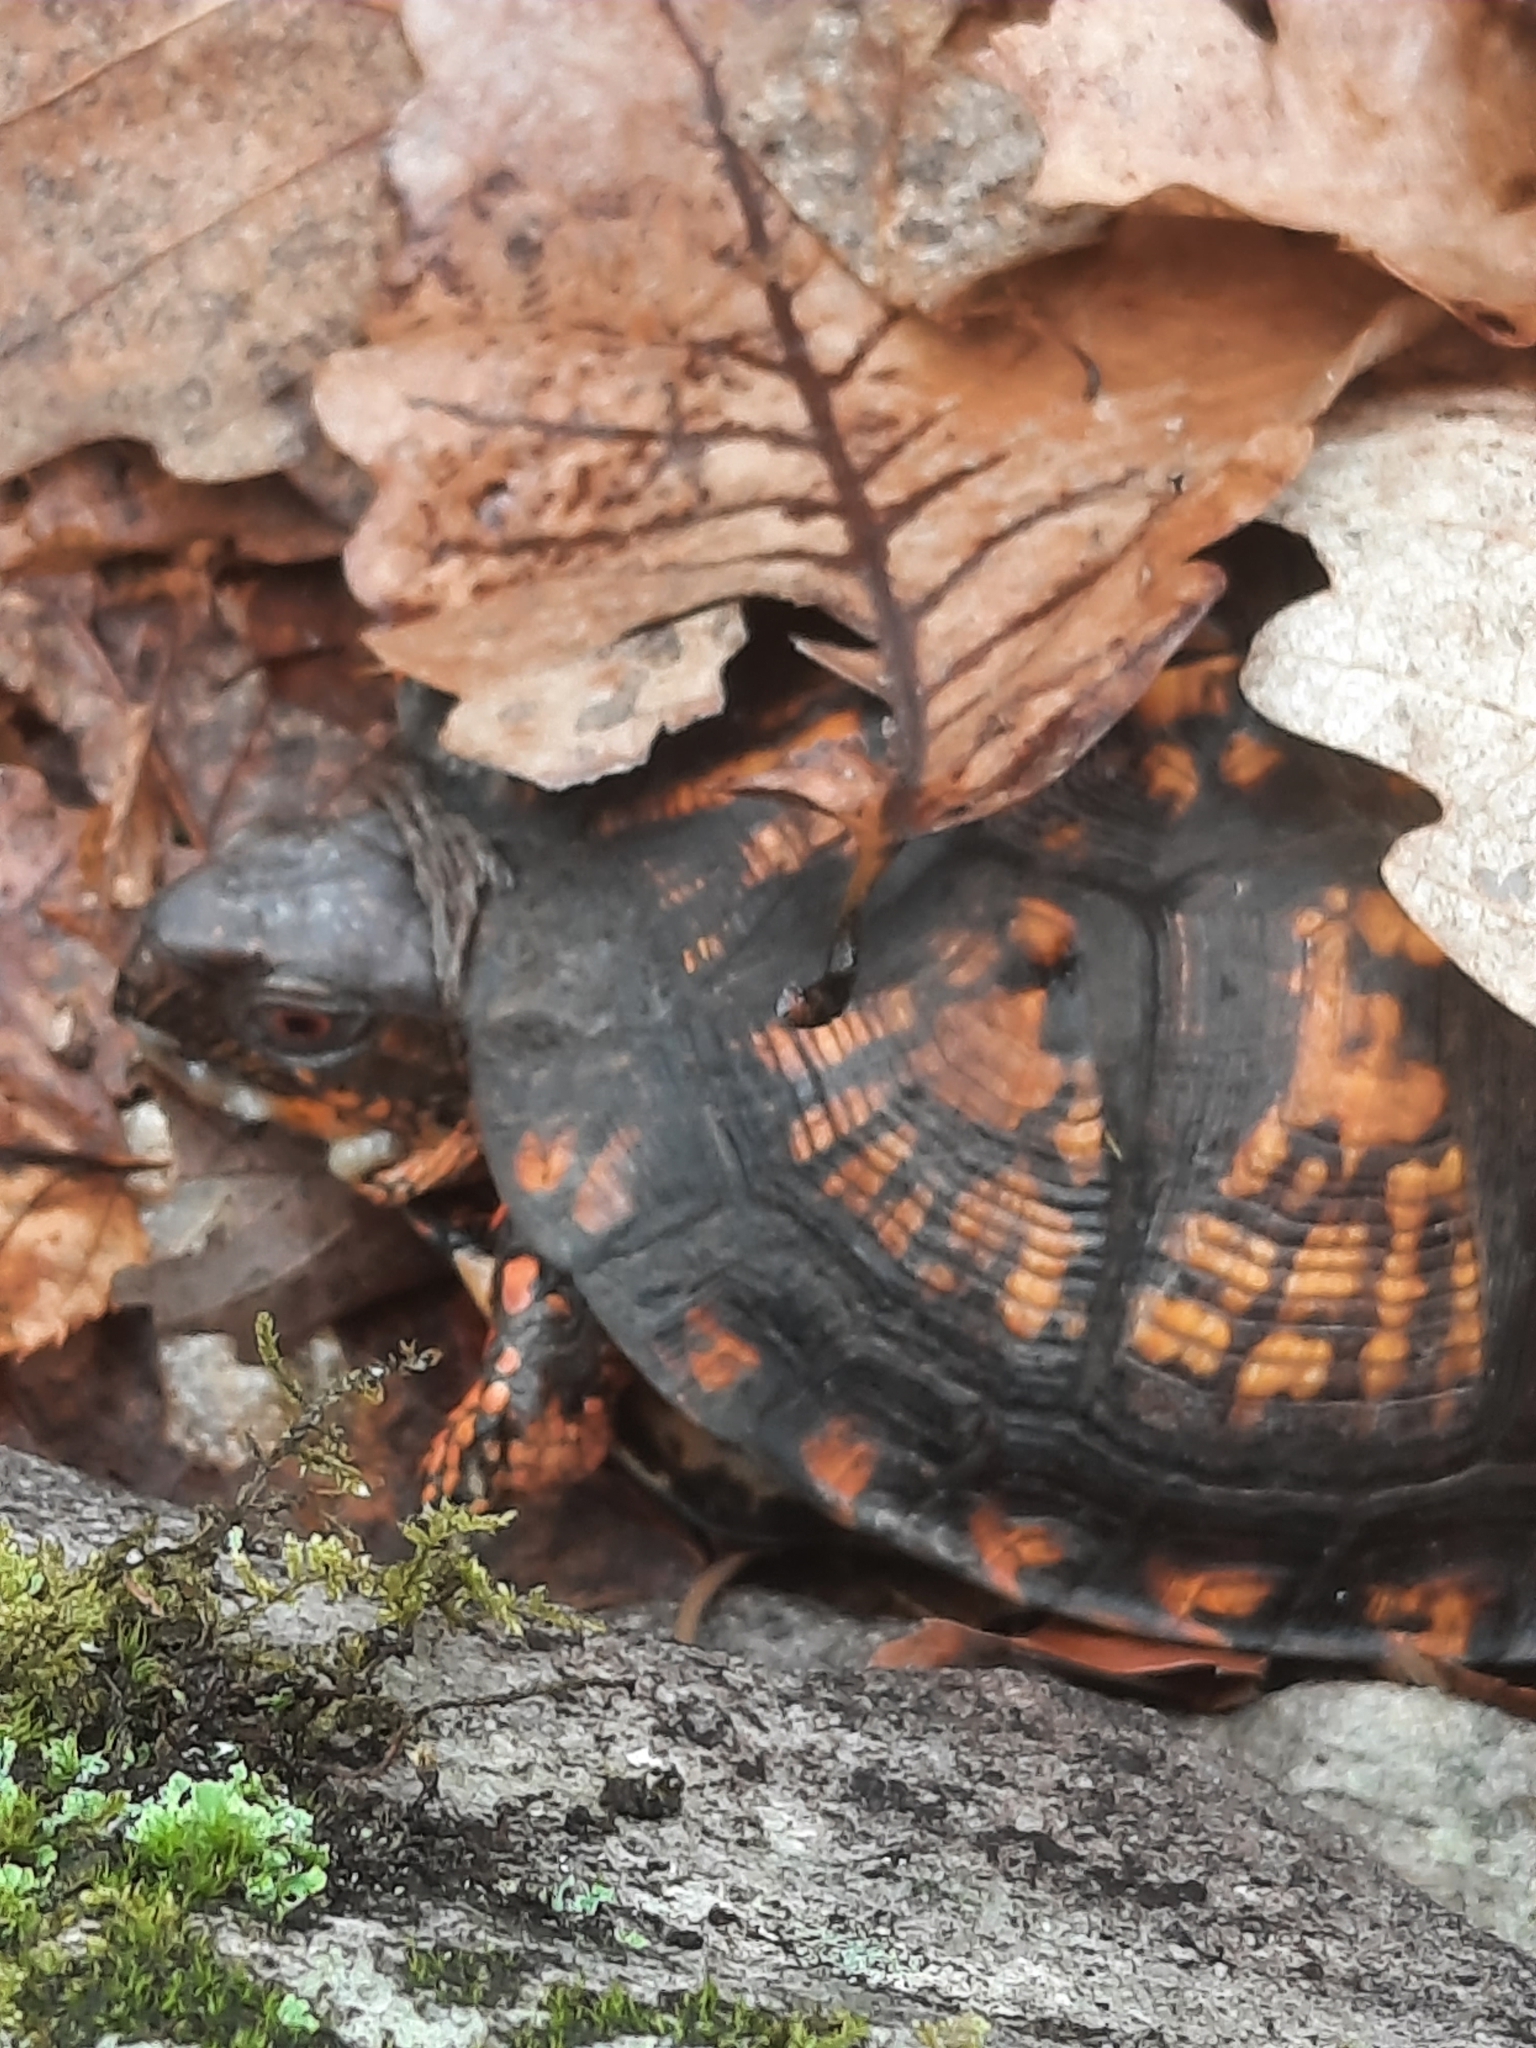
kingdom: Animalia
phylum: Chordata
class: Testudines
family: Emydidae
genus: Terrapene
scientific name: Terrapene carolina
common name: Common box turtle
